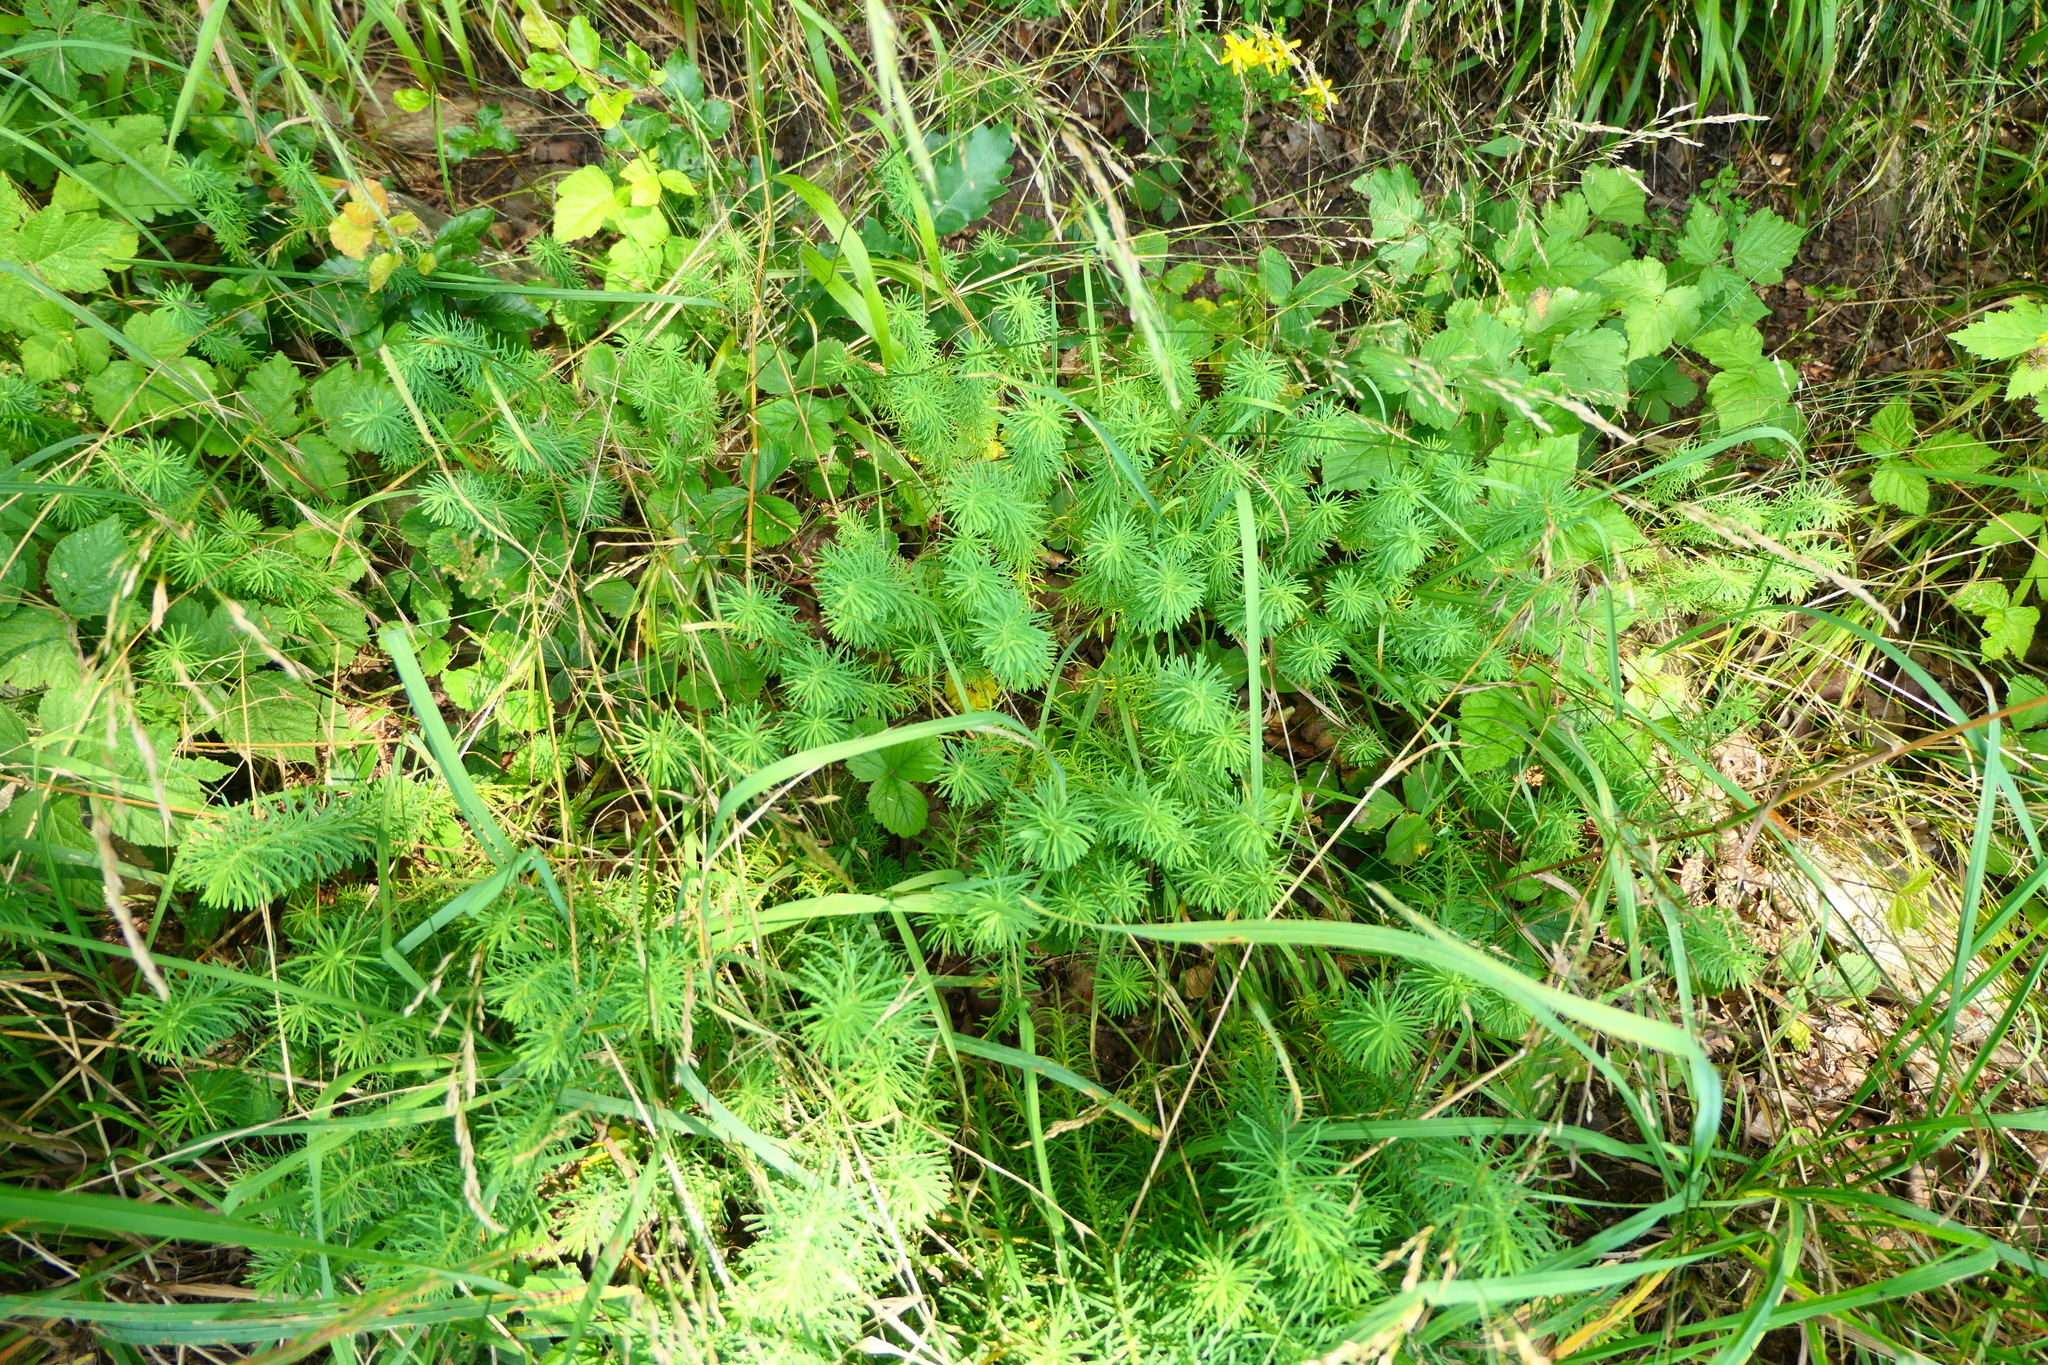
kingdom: Plantae
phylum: Tracheophyta
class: Magnoliopsida
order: Malpighiales
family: Euphorbiaceae
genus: Euphorbia
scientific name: Euphorbia cyparissias
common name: Cypress spurge
